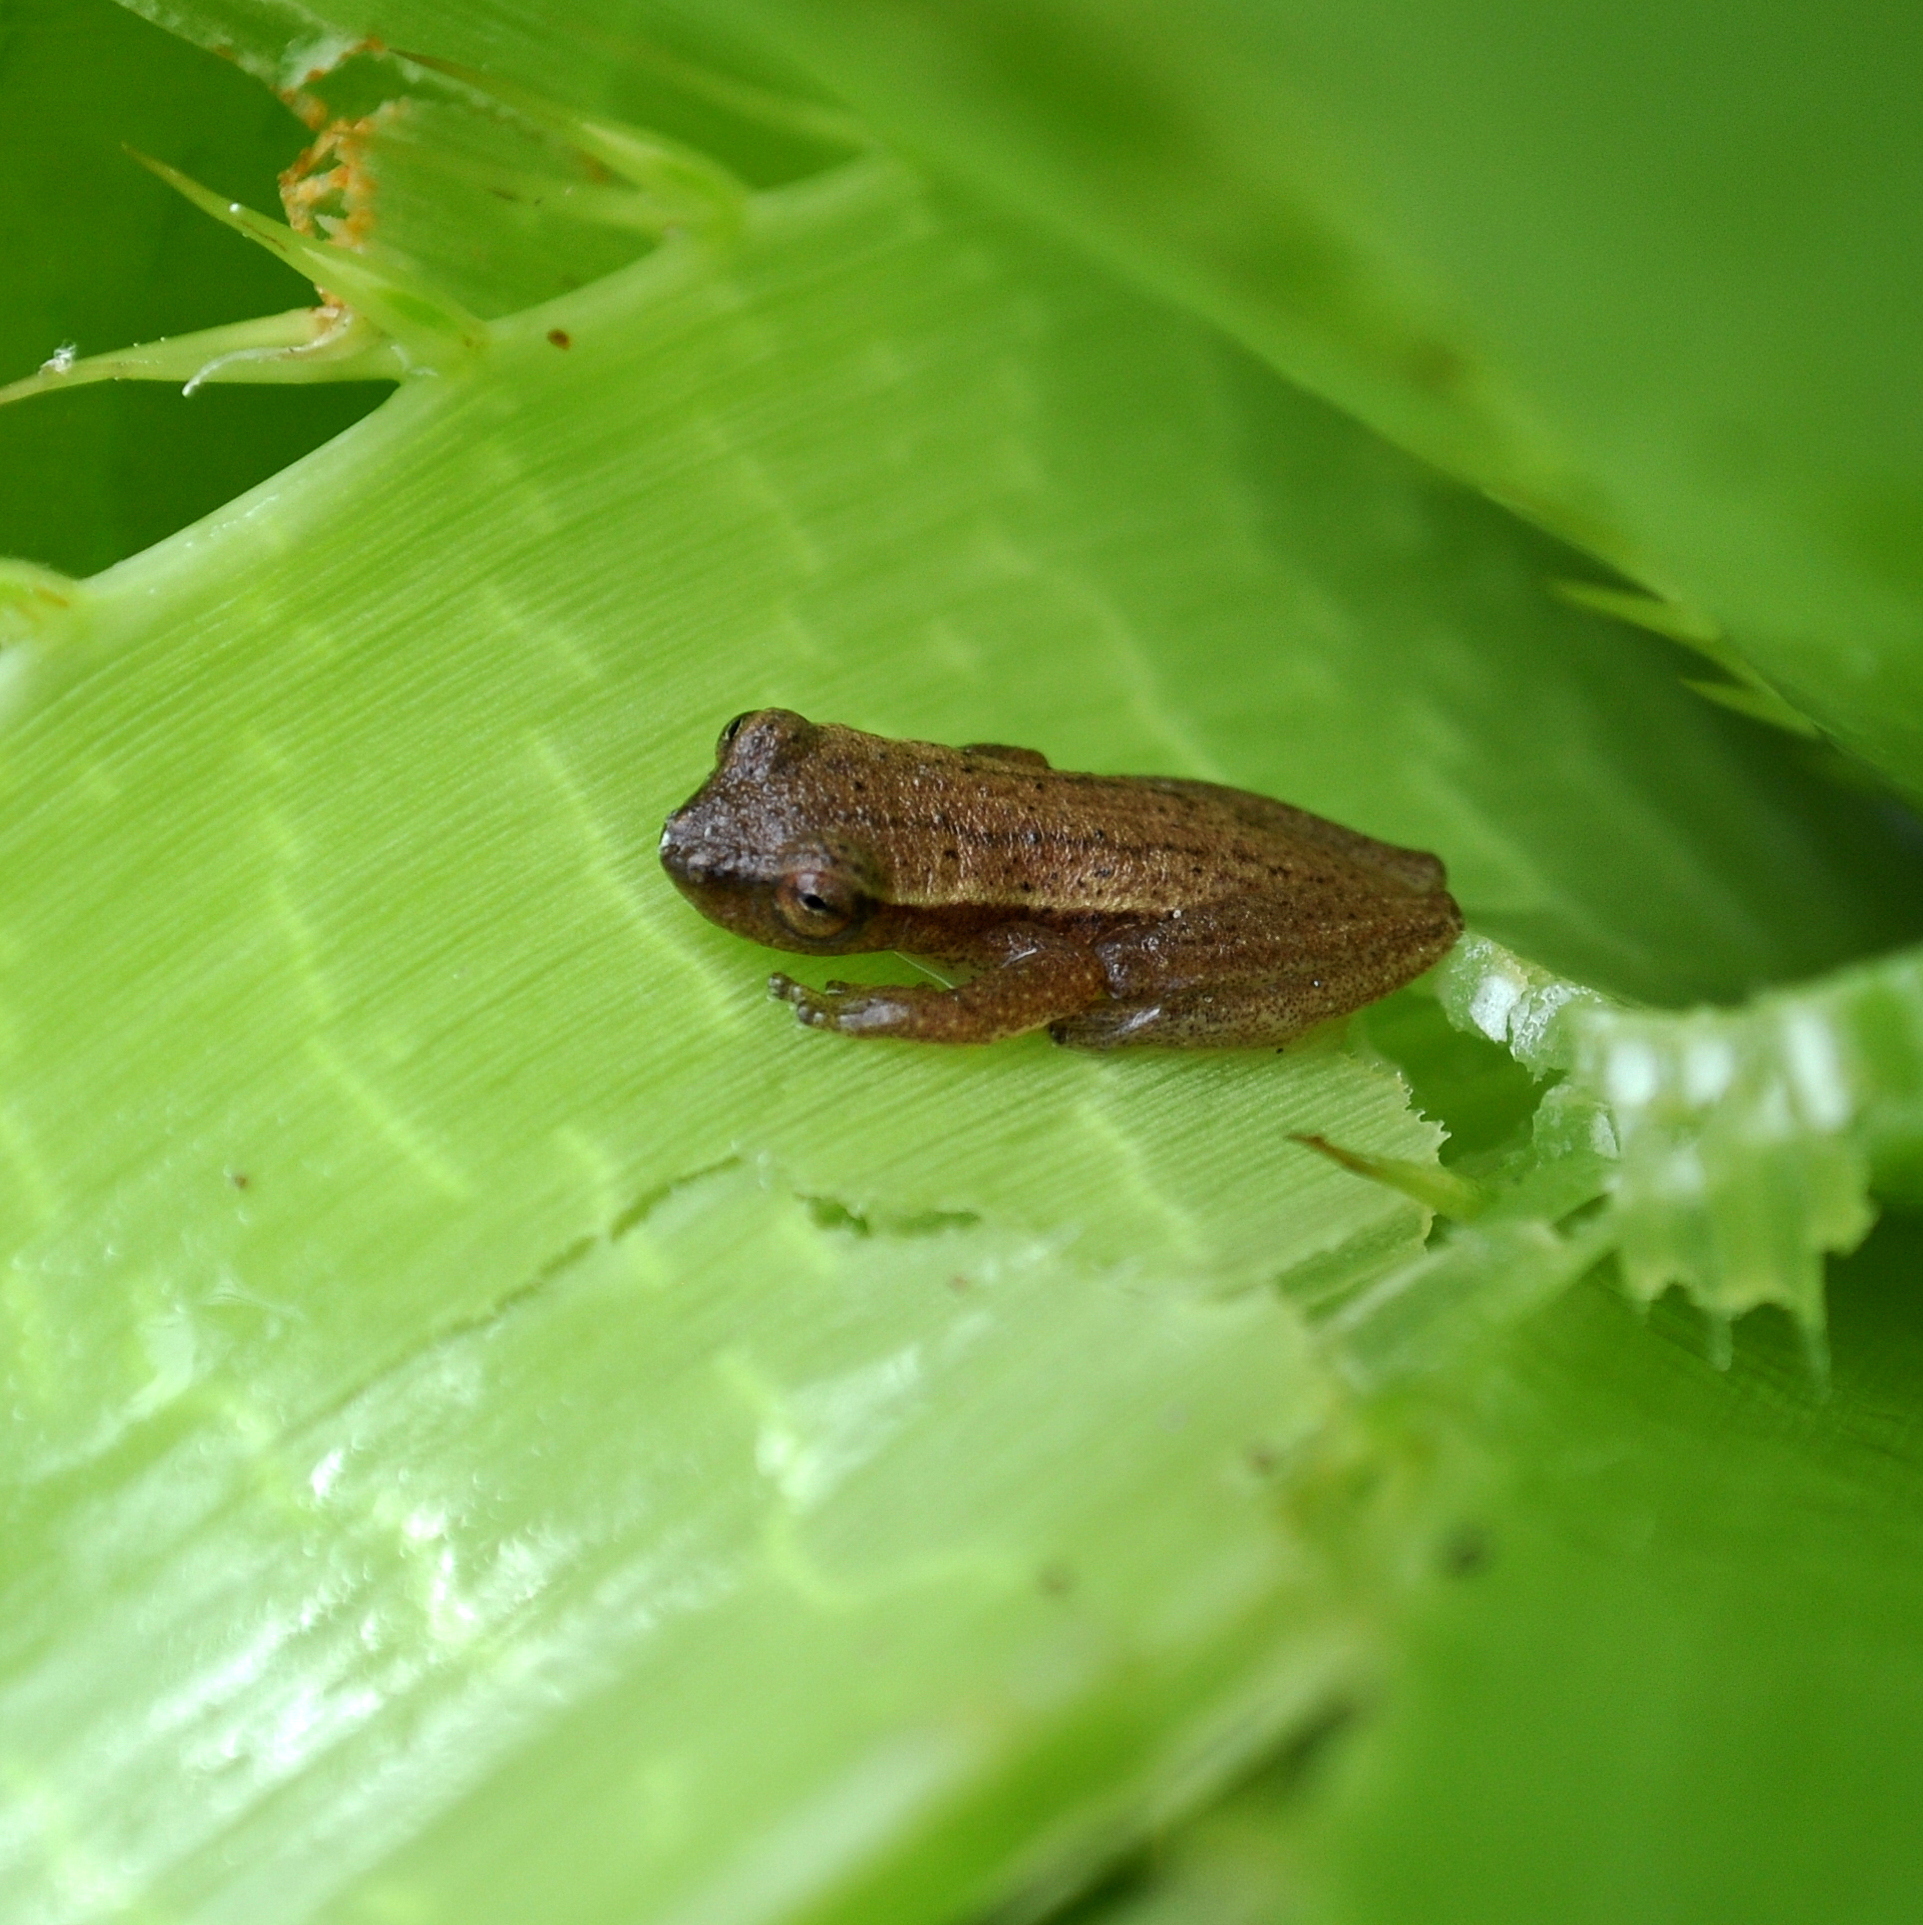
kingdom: Animalia
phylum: Chordata
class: Amphibia
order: Anura
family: Hylidae
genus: Dendropsophus
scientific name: Dendropsophus sanborni
